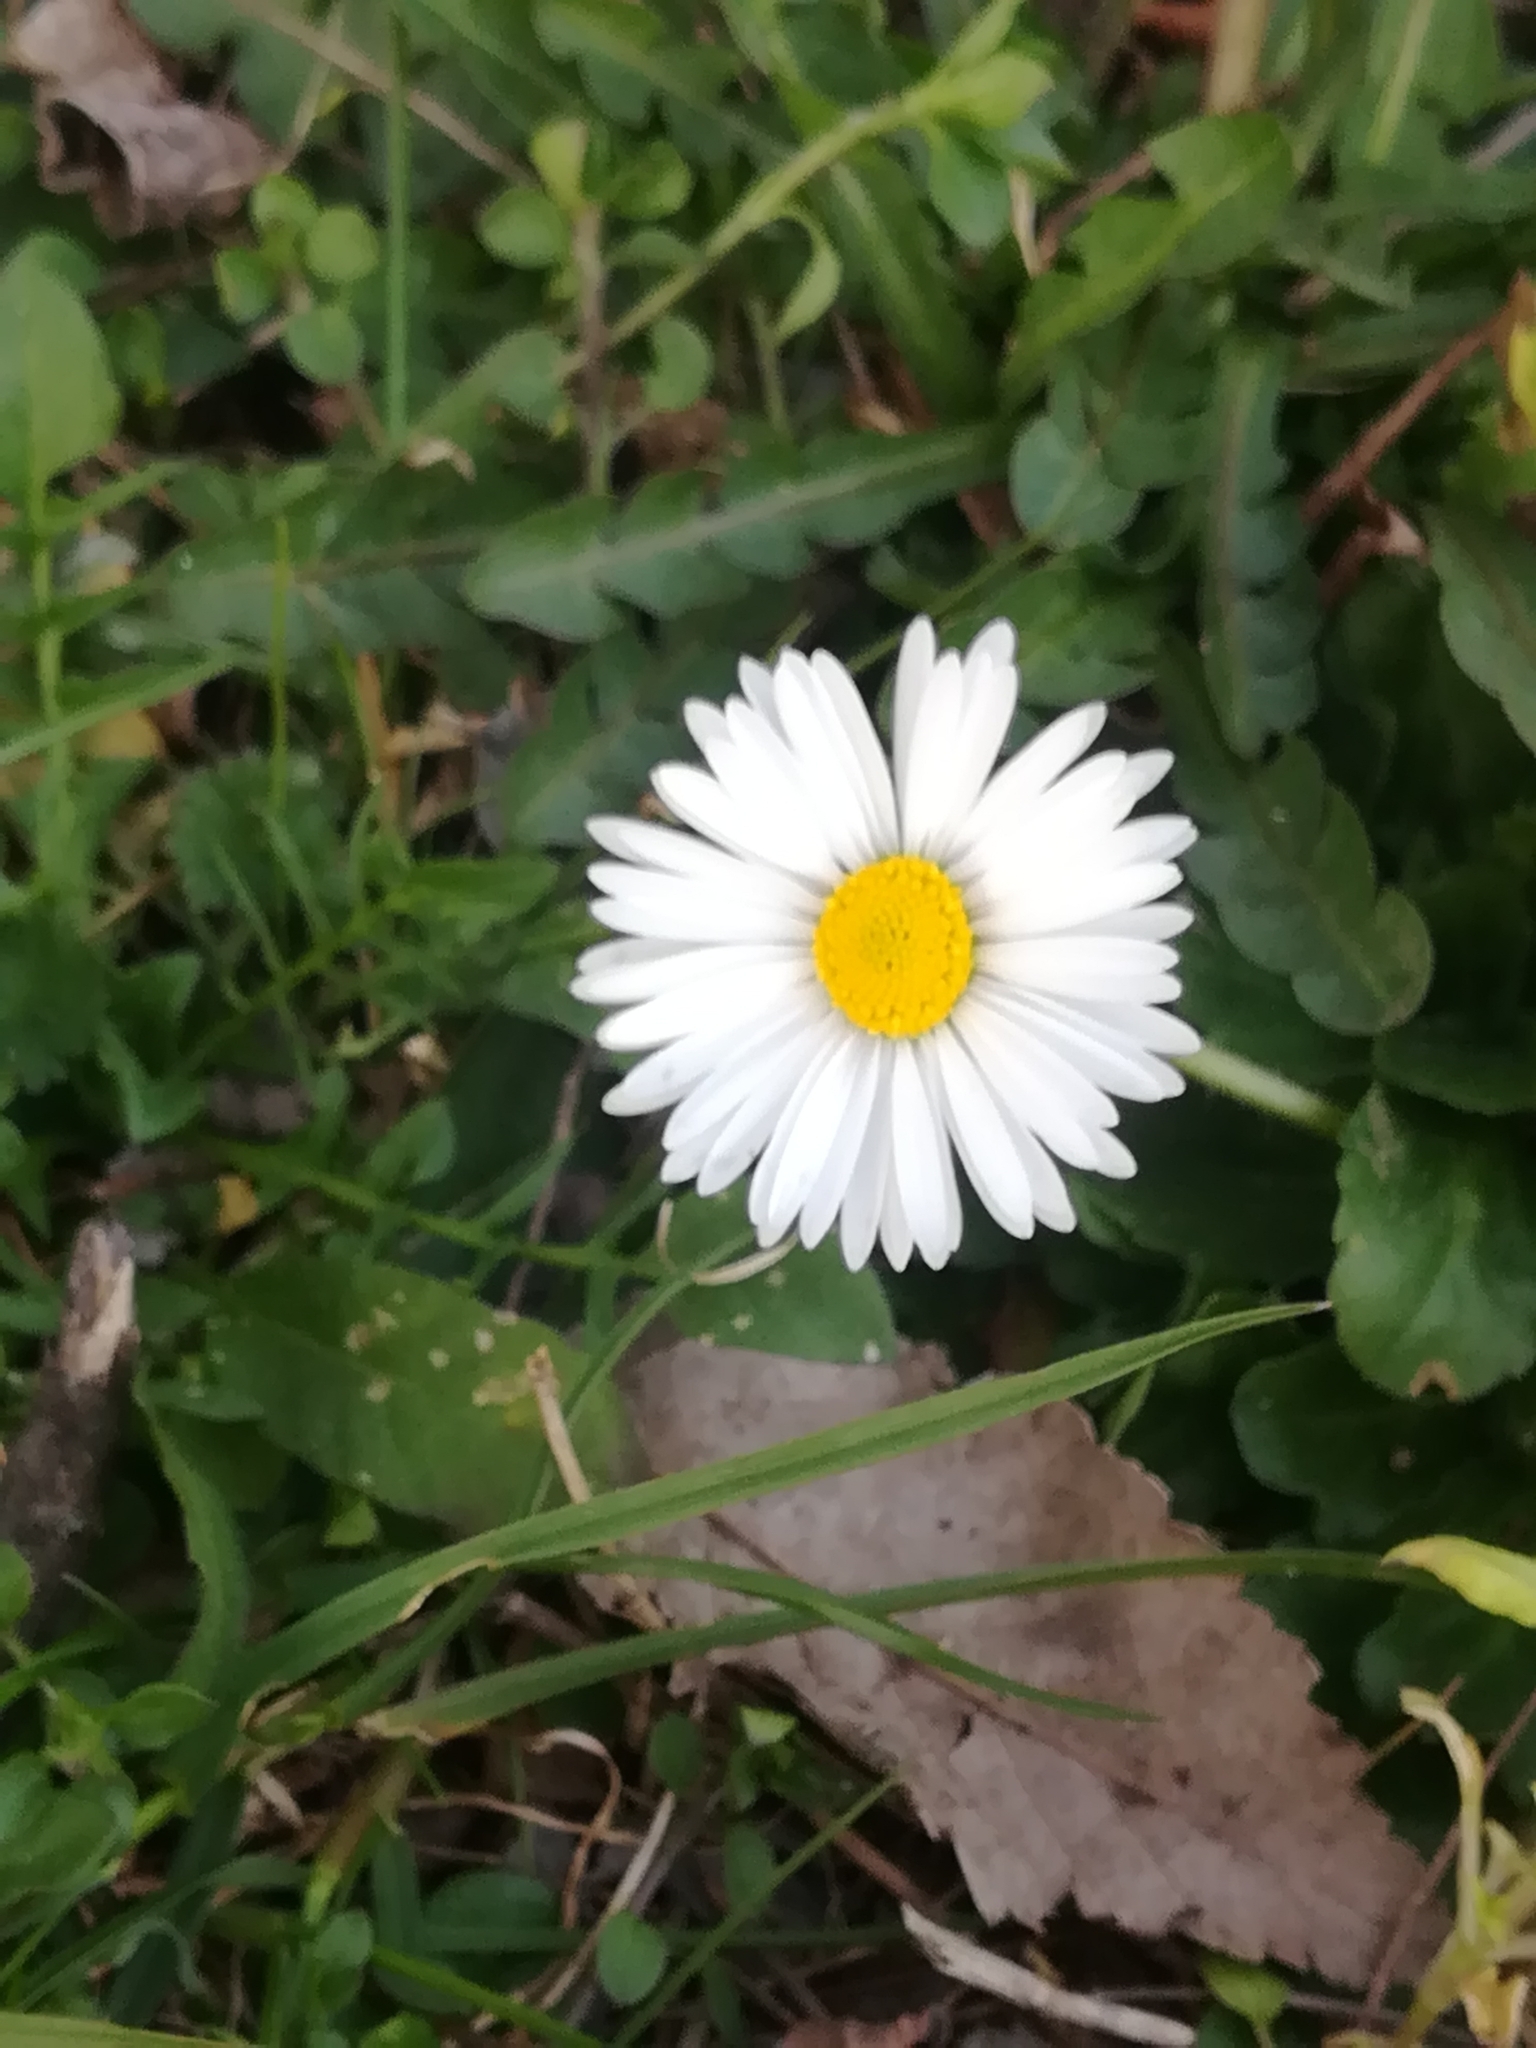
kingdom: Plantae
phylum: Tracheophyta
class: Magnoliopsida
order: Asterales
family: Asteraceae
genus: Bellis
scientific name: Bellis perennis
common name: Lawndaisy
